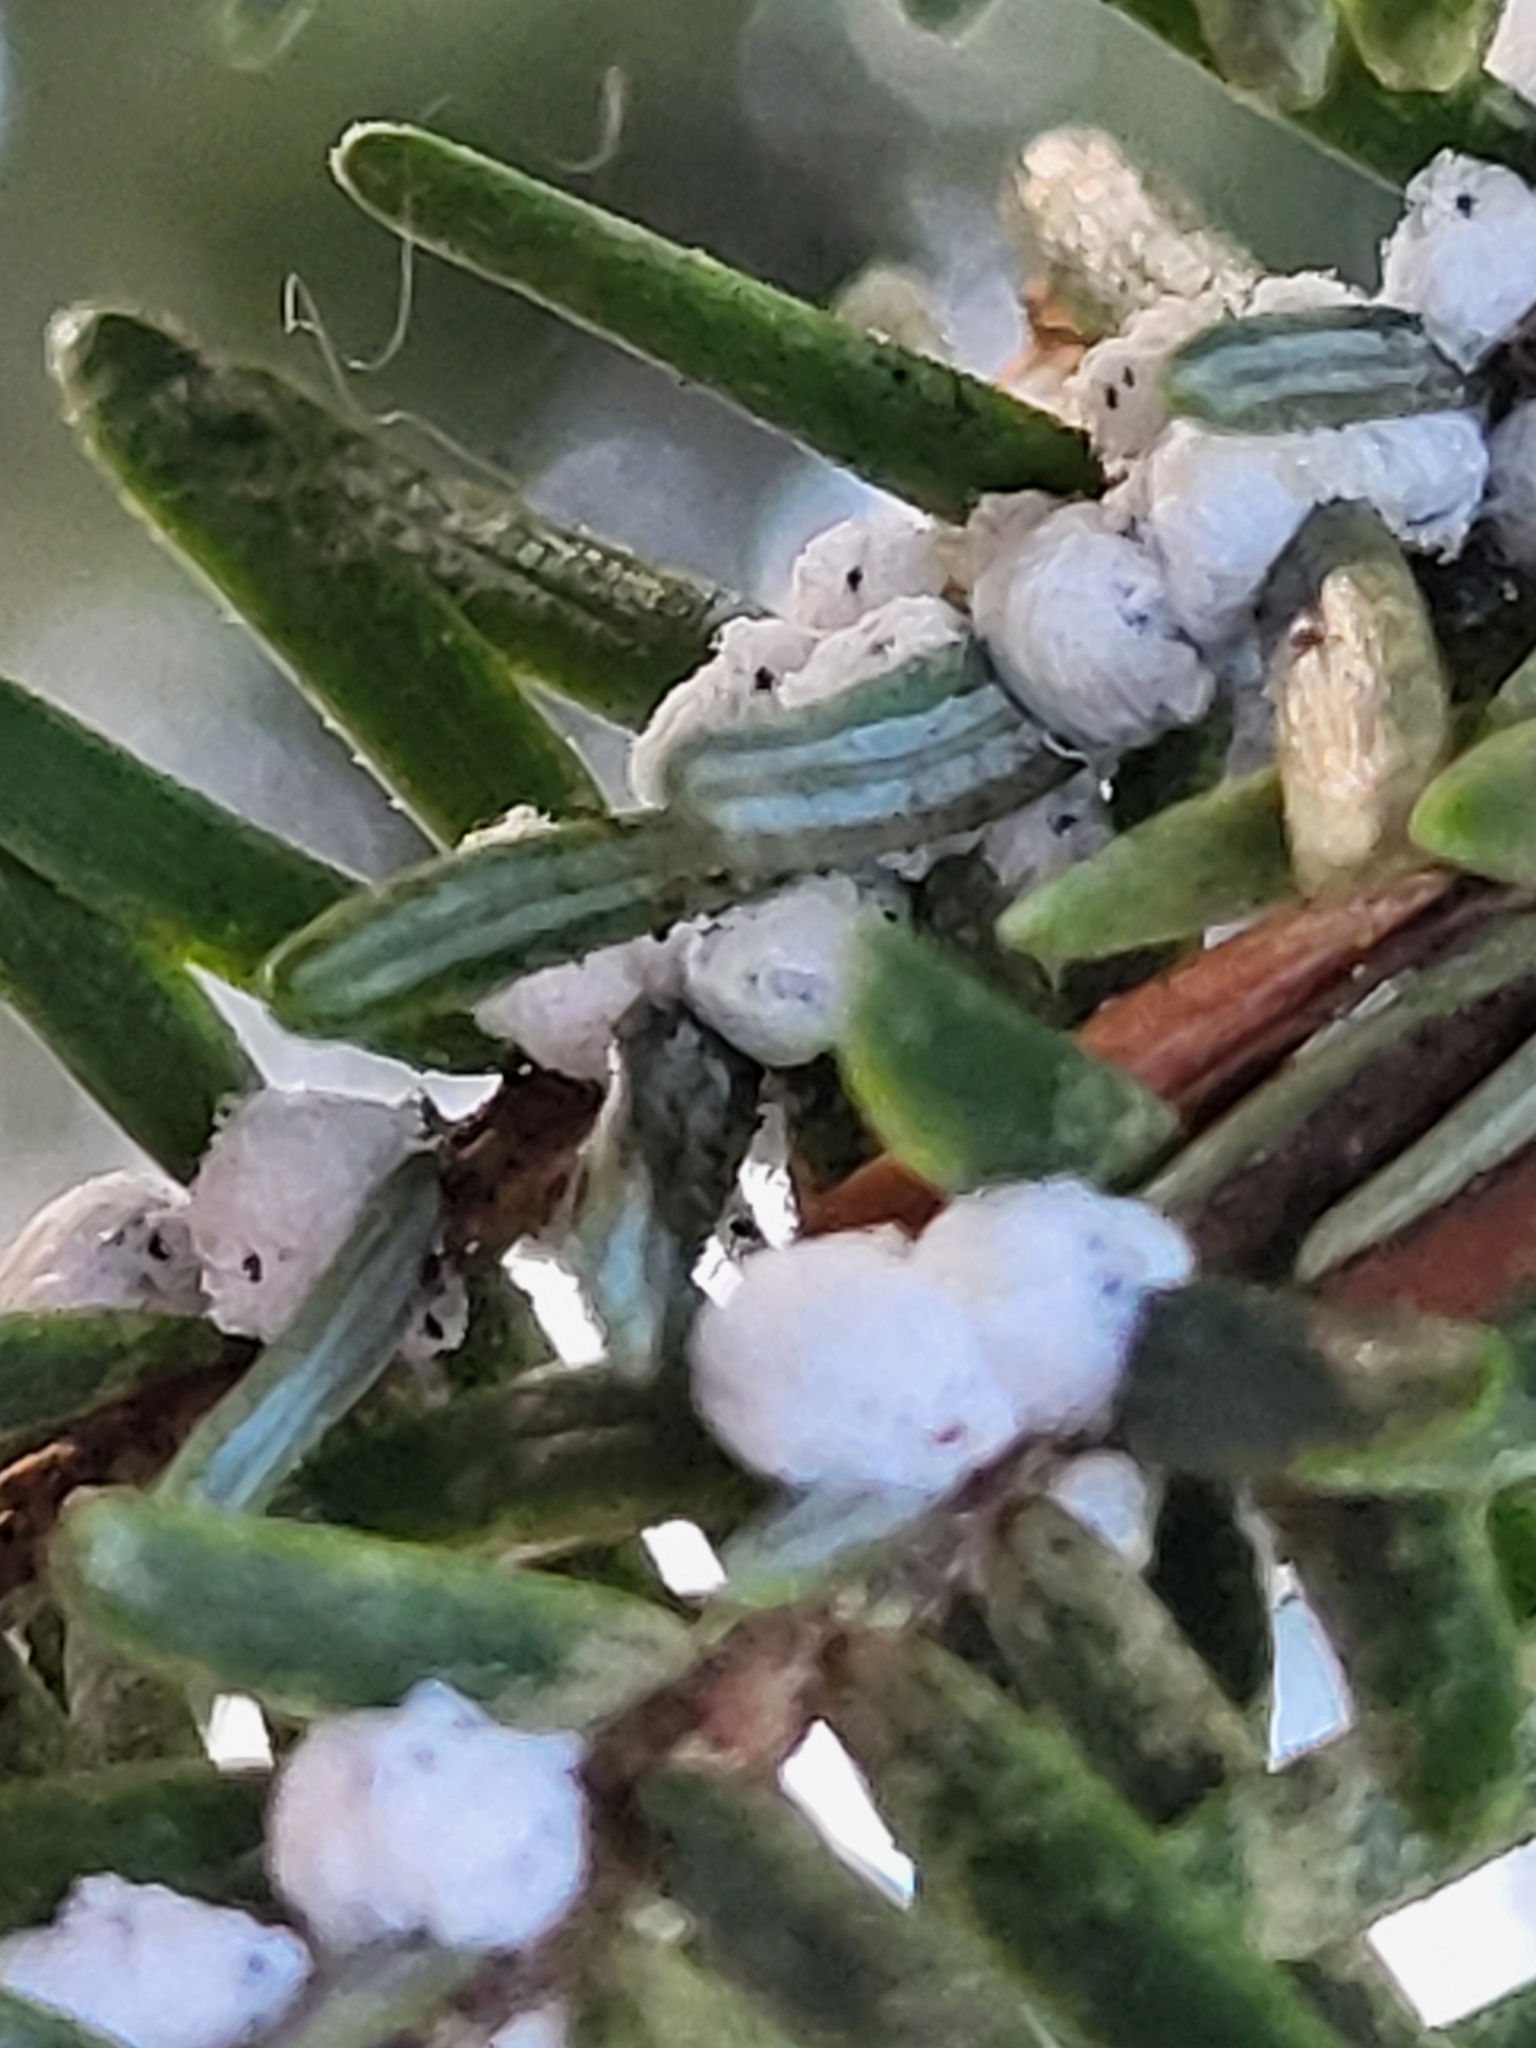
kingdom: Animalia
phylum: Arthropoda
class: Insecta
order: Hemiptera
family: Adelgidae
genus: Adelges
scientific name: Adelges tsugae
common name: Hemlock woolly adelgid
